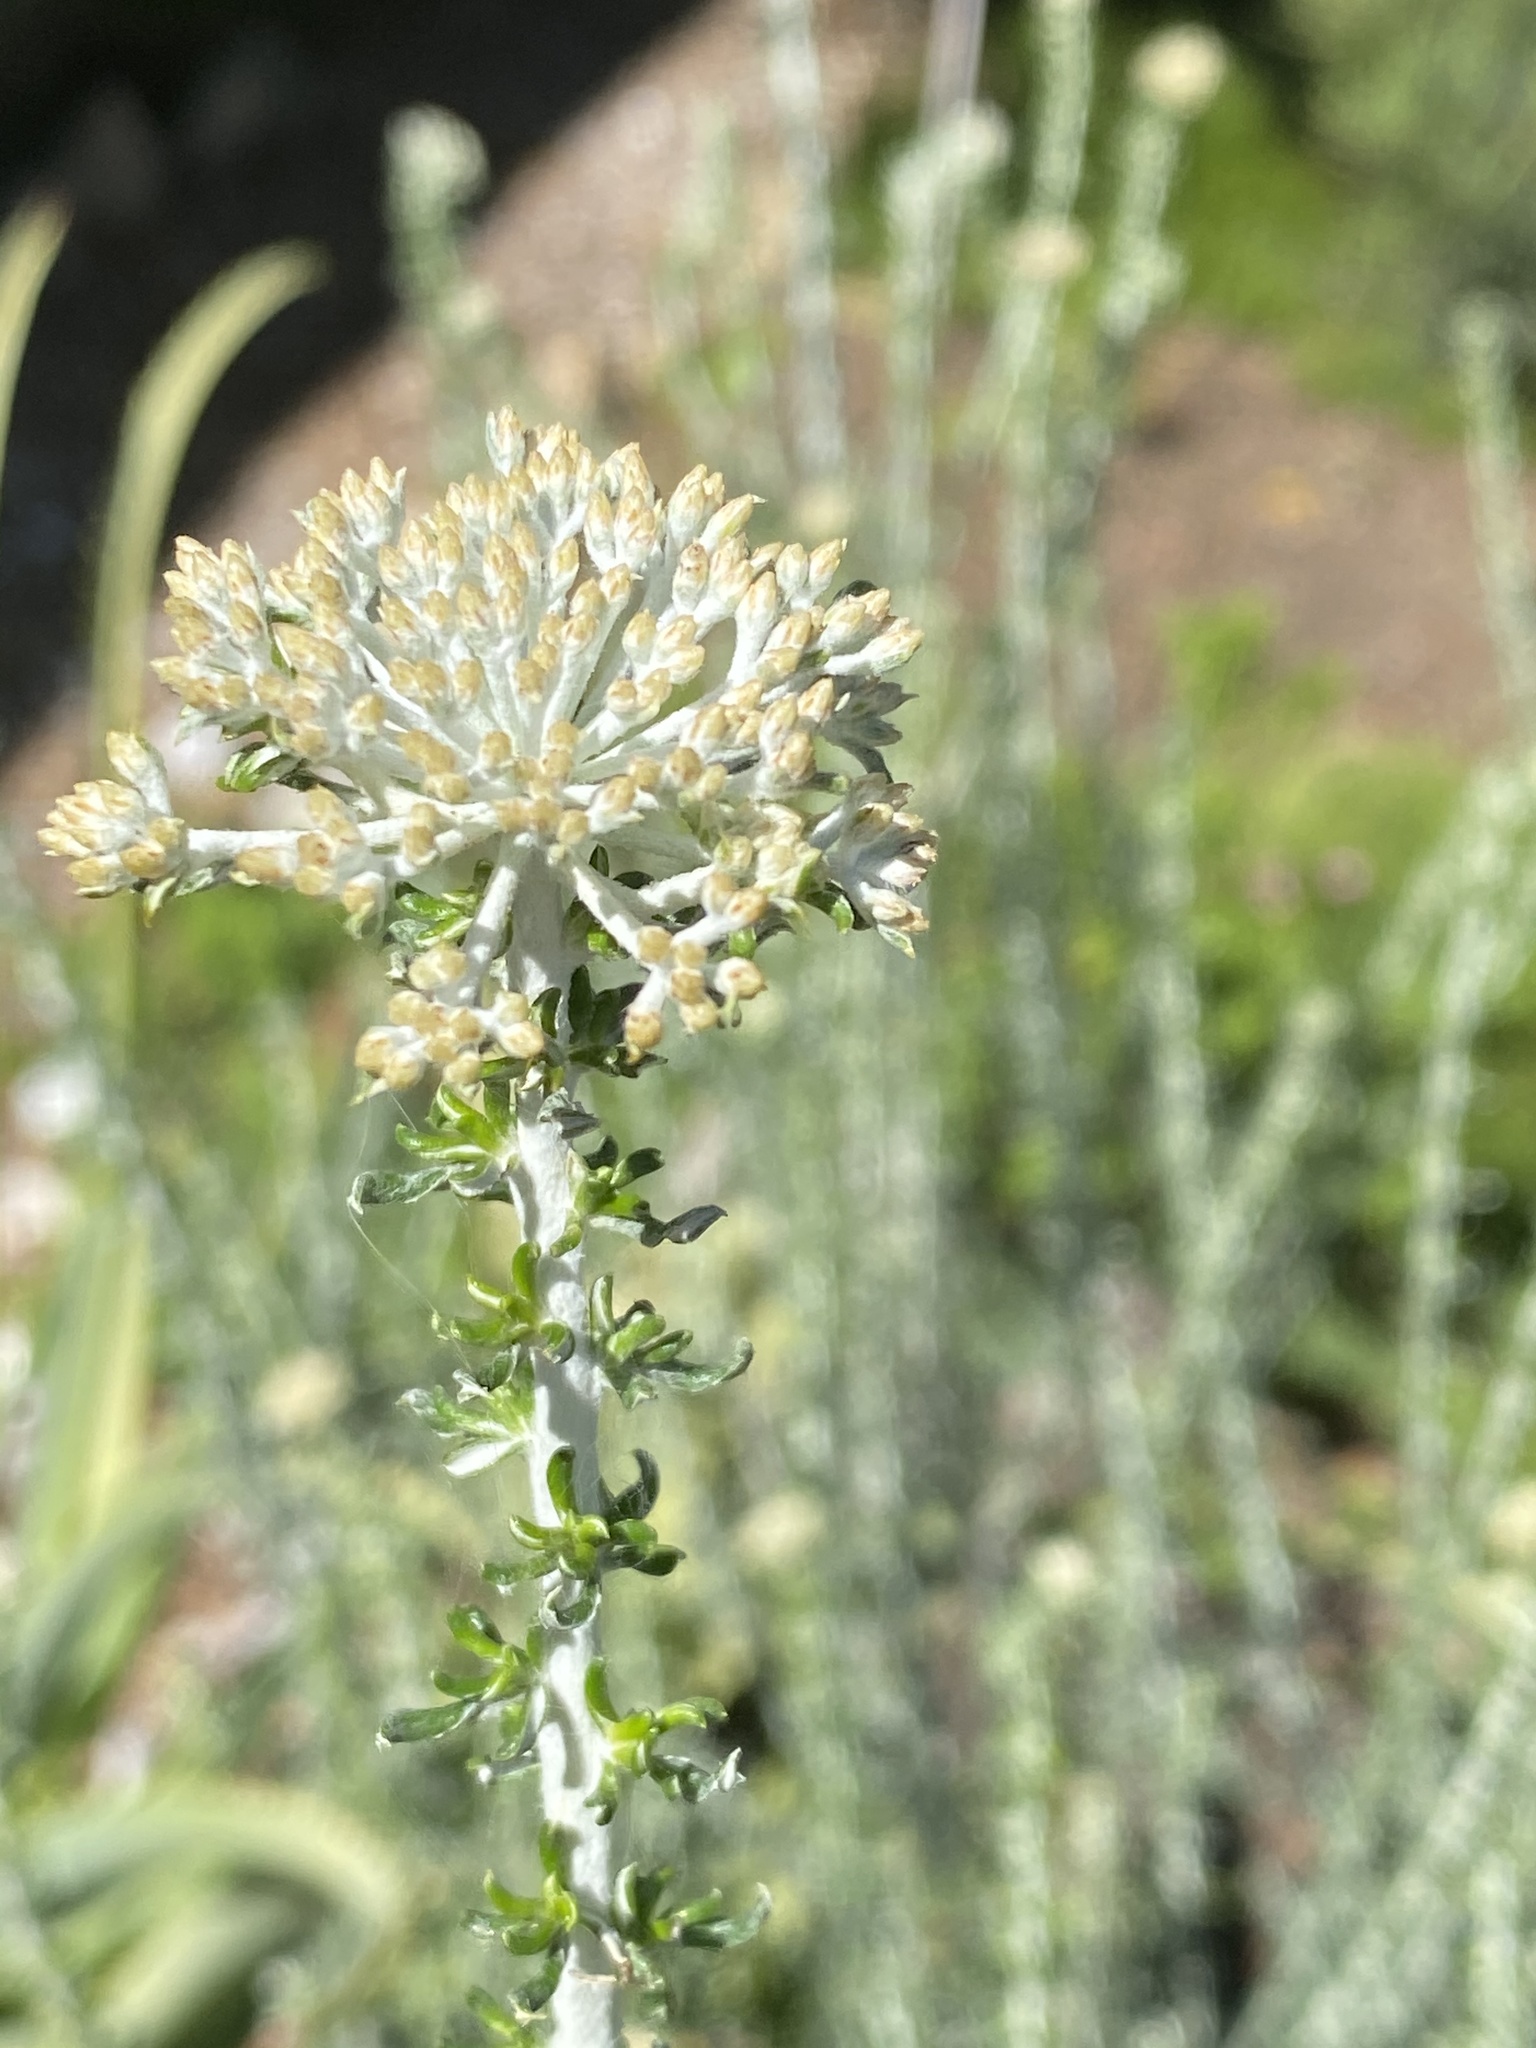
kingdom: Plantae
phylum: Tracheophyta
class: Magnoliopsida
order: Asterales
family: Asteraceae
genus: Metalasia
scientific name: Metalasia muricata
